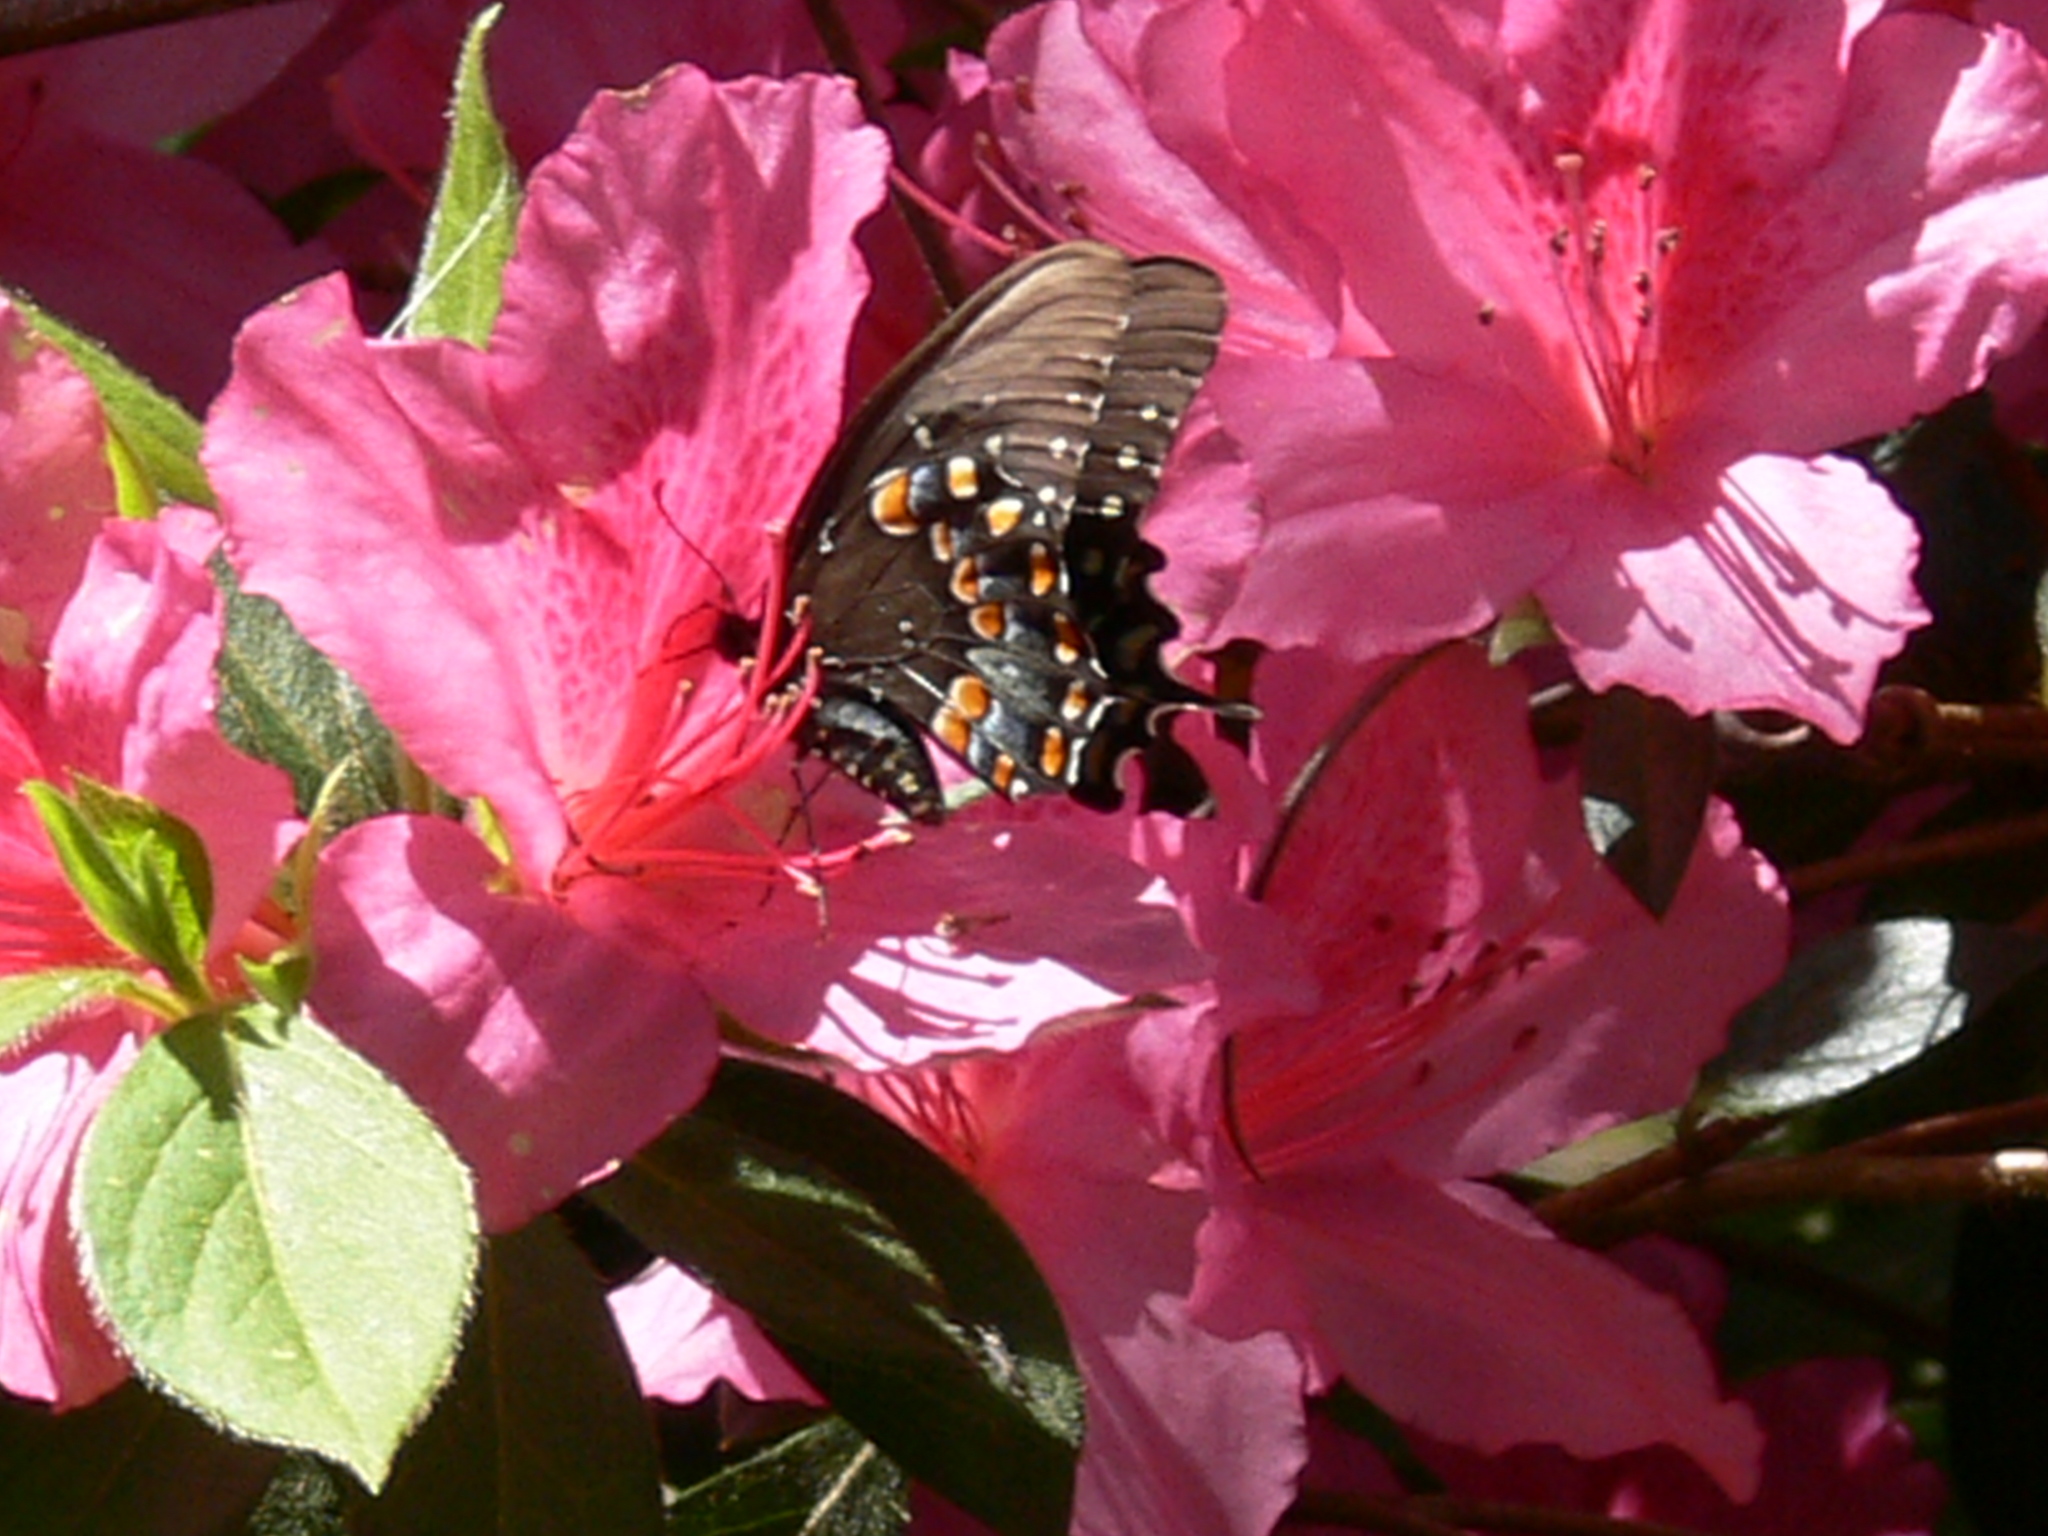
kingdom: Animalia
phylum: Arthropoda
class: Insecta
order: Lepidoptera
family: Papilionidae
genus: Papilio
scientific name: Papilio troilus
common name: Spicebush swallowtail
